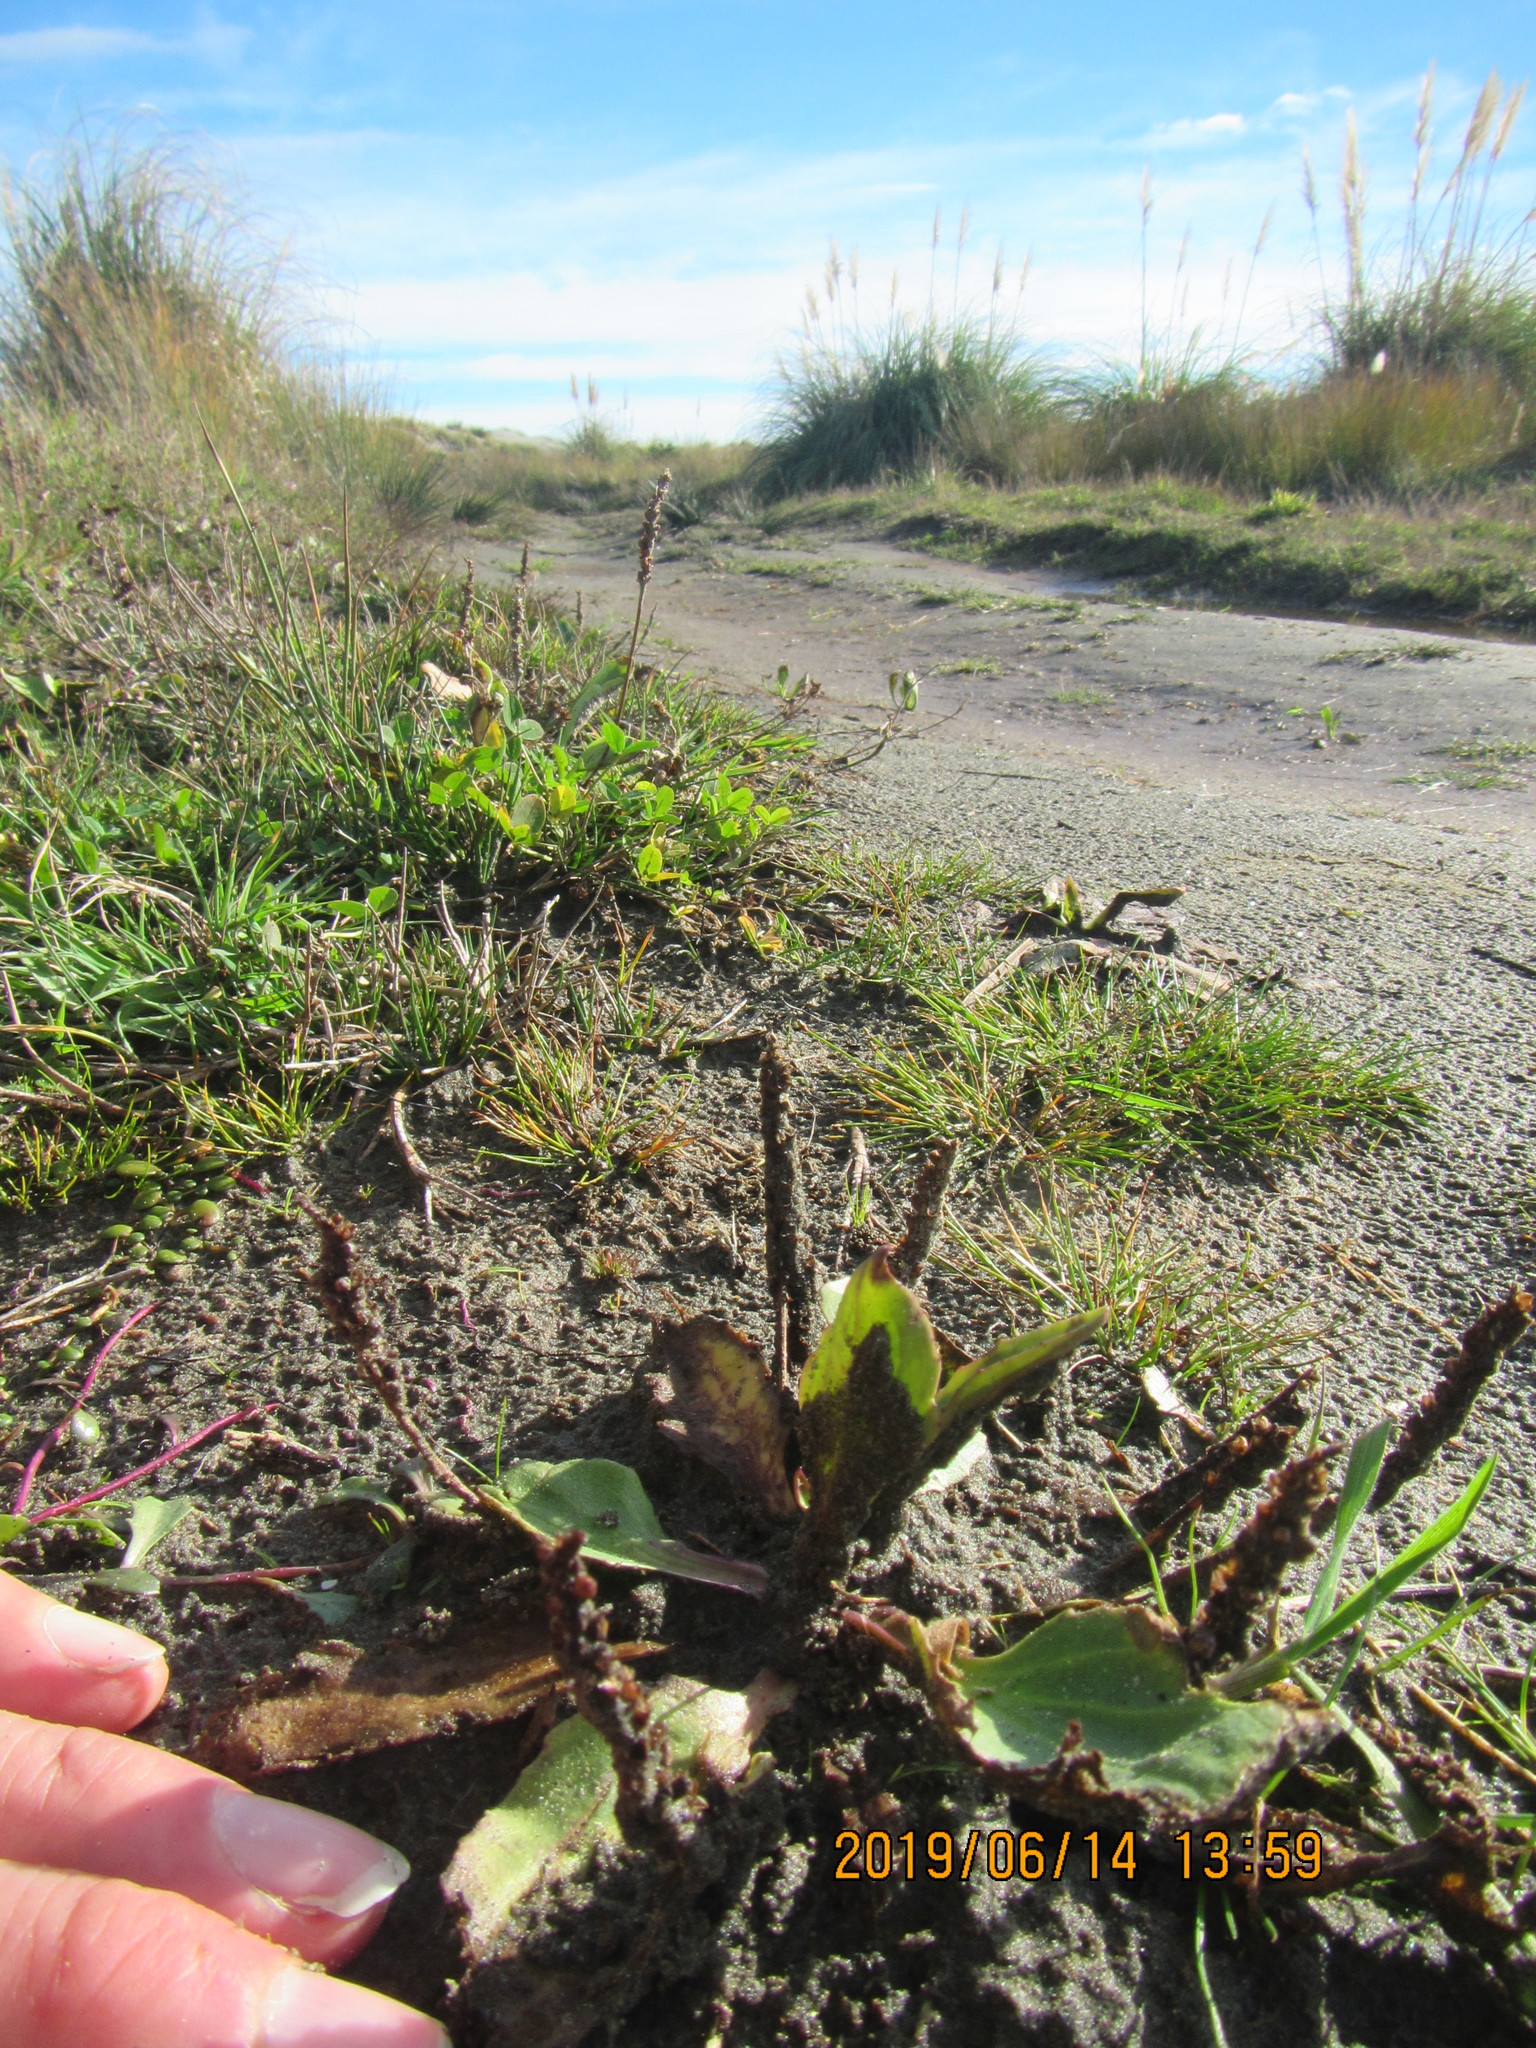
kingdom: Plantae
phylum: Tracheophyta
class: Magnoliopsida
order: Lamiales
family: Plantaginaceae
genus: Plantago
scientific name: Plantago major
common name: Common plantain
